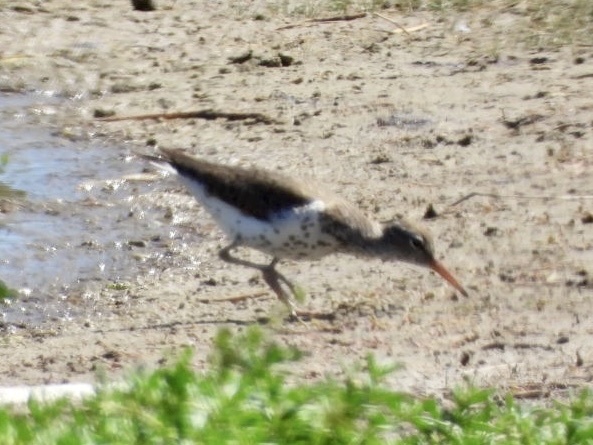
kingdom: Animalia
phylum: Chordata
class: Aves
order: Charadriiformes
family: Scolopacidae
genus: Actitis
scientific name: Actitis macularius
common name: Spotted sandpiper
